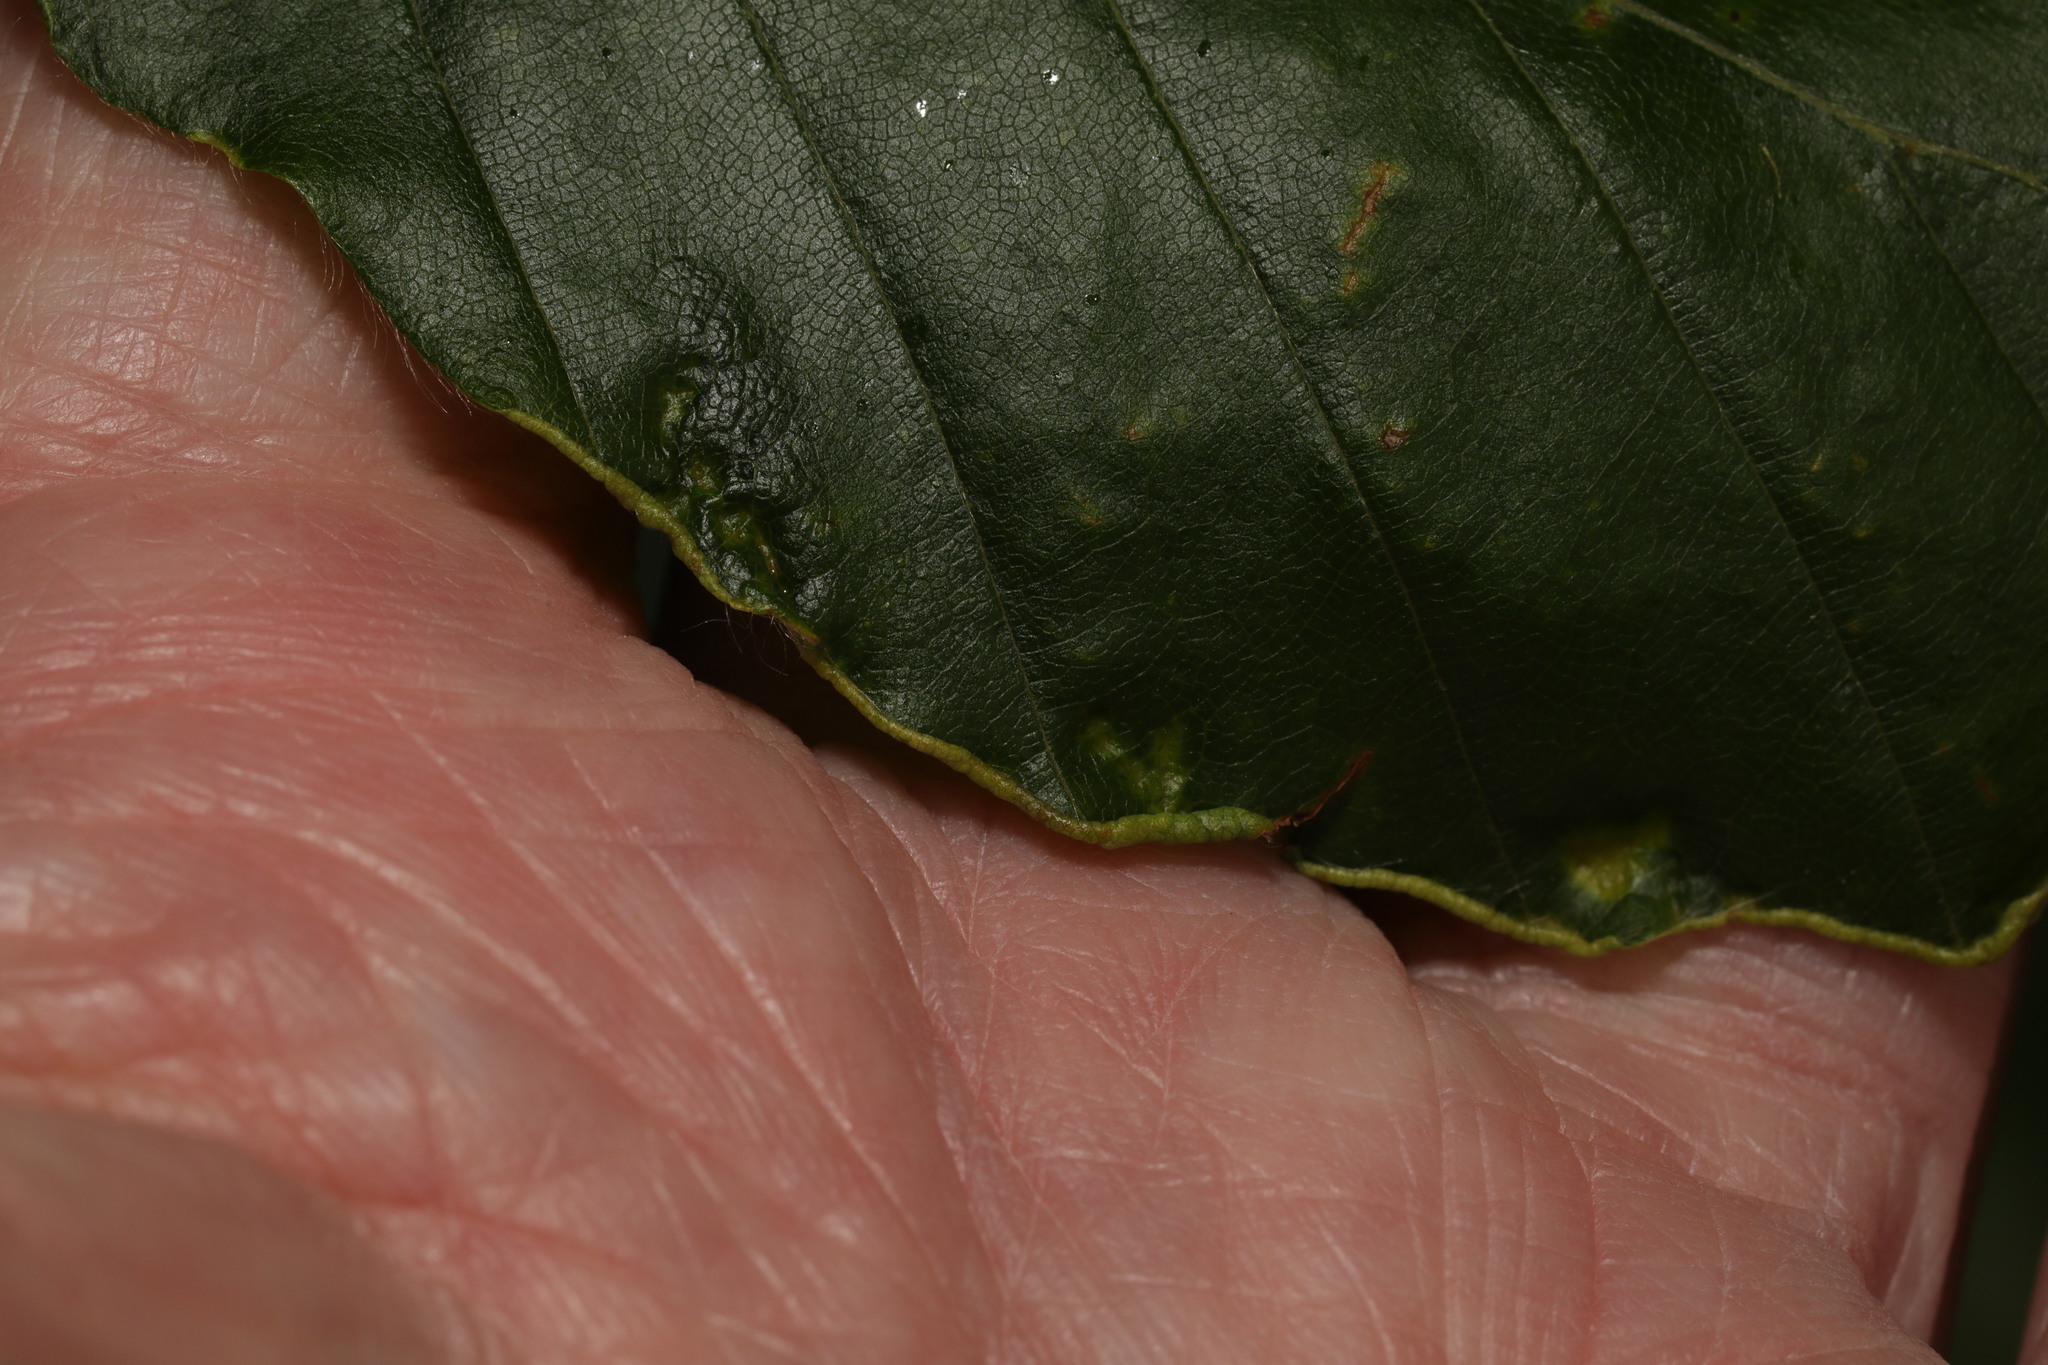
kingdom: Animalia
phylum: Arthropoda
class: Arachnida
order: Trombidiformes
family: Eriophyidae
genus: Acalitus
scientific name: Acalitus stenaspis
